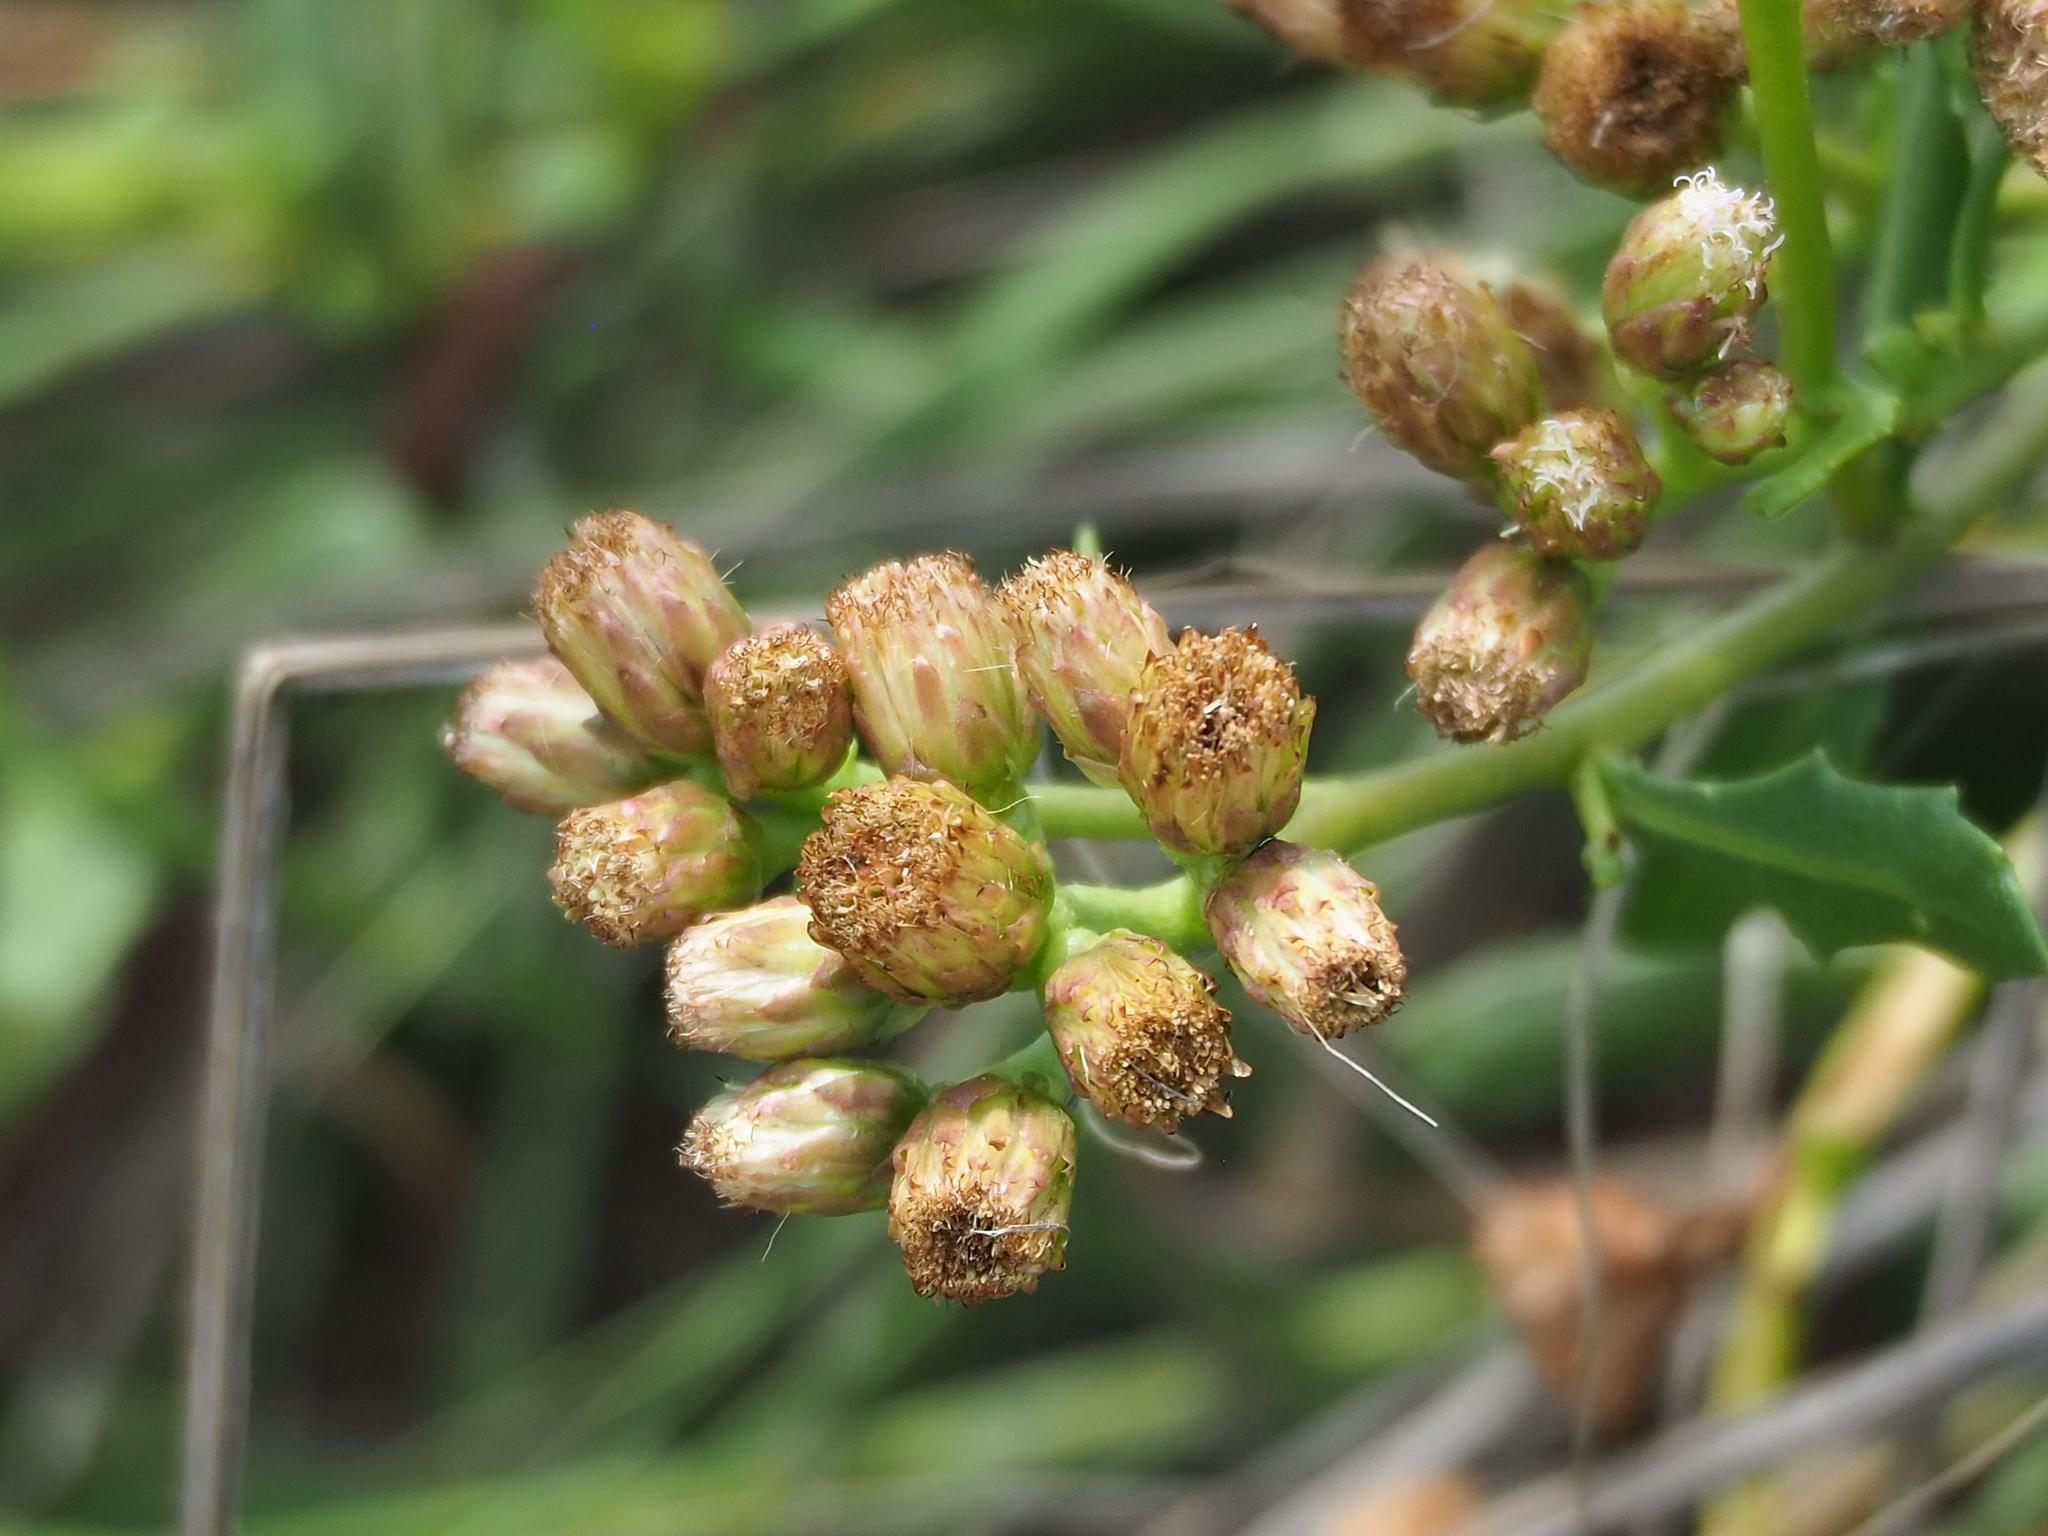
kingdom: Plantae
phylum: Tracheophyta
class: Magnoliopsida
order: Asterales
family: Asteraceae
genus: Pluchea
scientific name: Pluchea pteropoda
